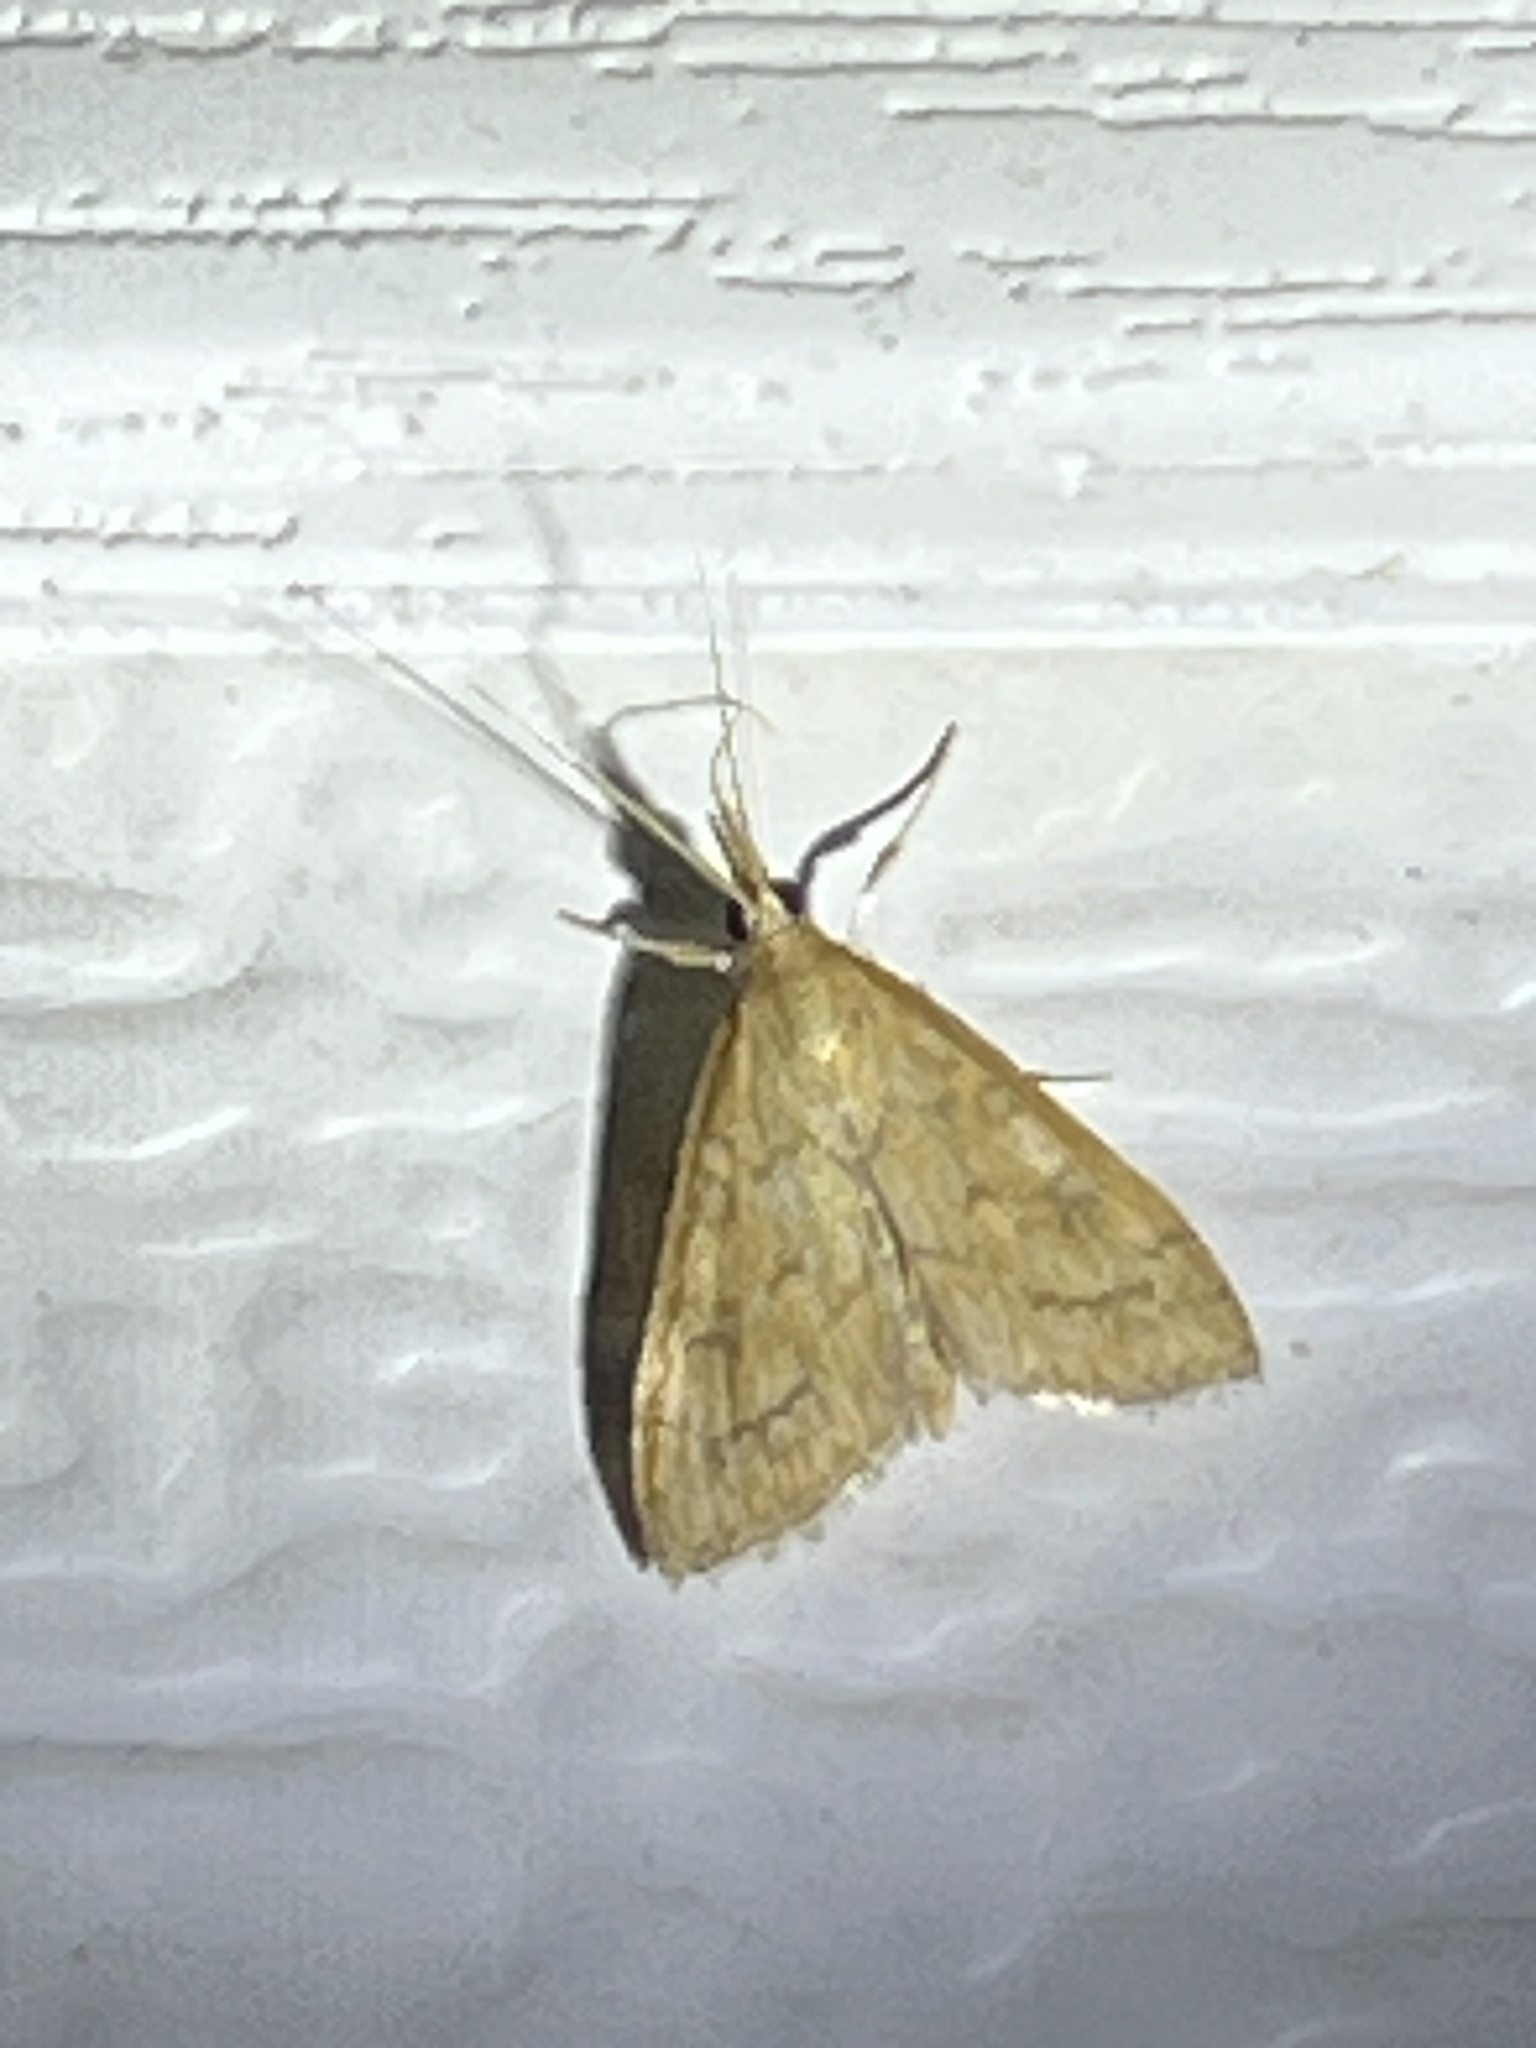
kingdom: Animalia
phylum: Arthropoda
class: Insecta
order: Lepidoptera
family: Crambidae
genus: Udea
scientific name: Udea rubigalis
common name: Celery leaftier moth
